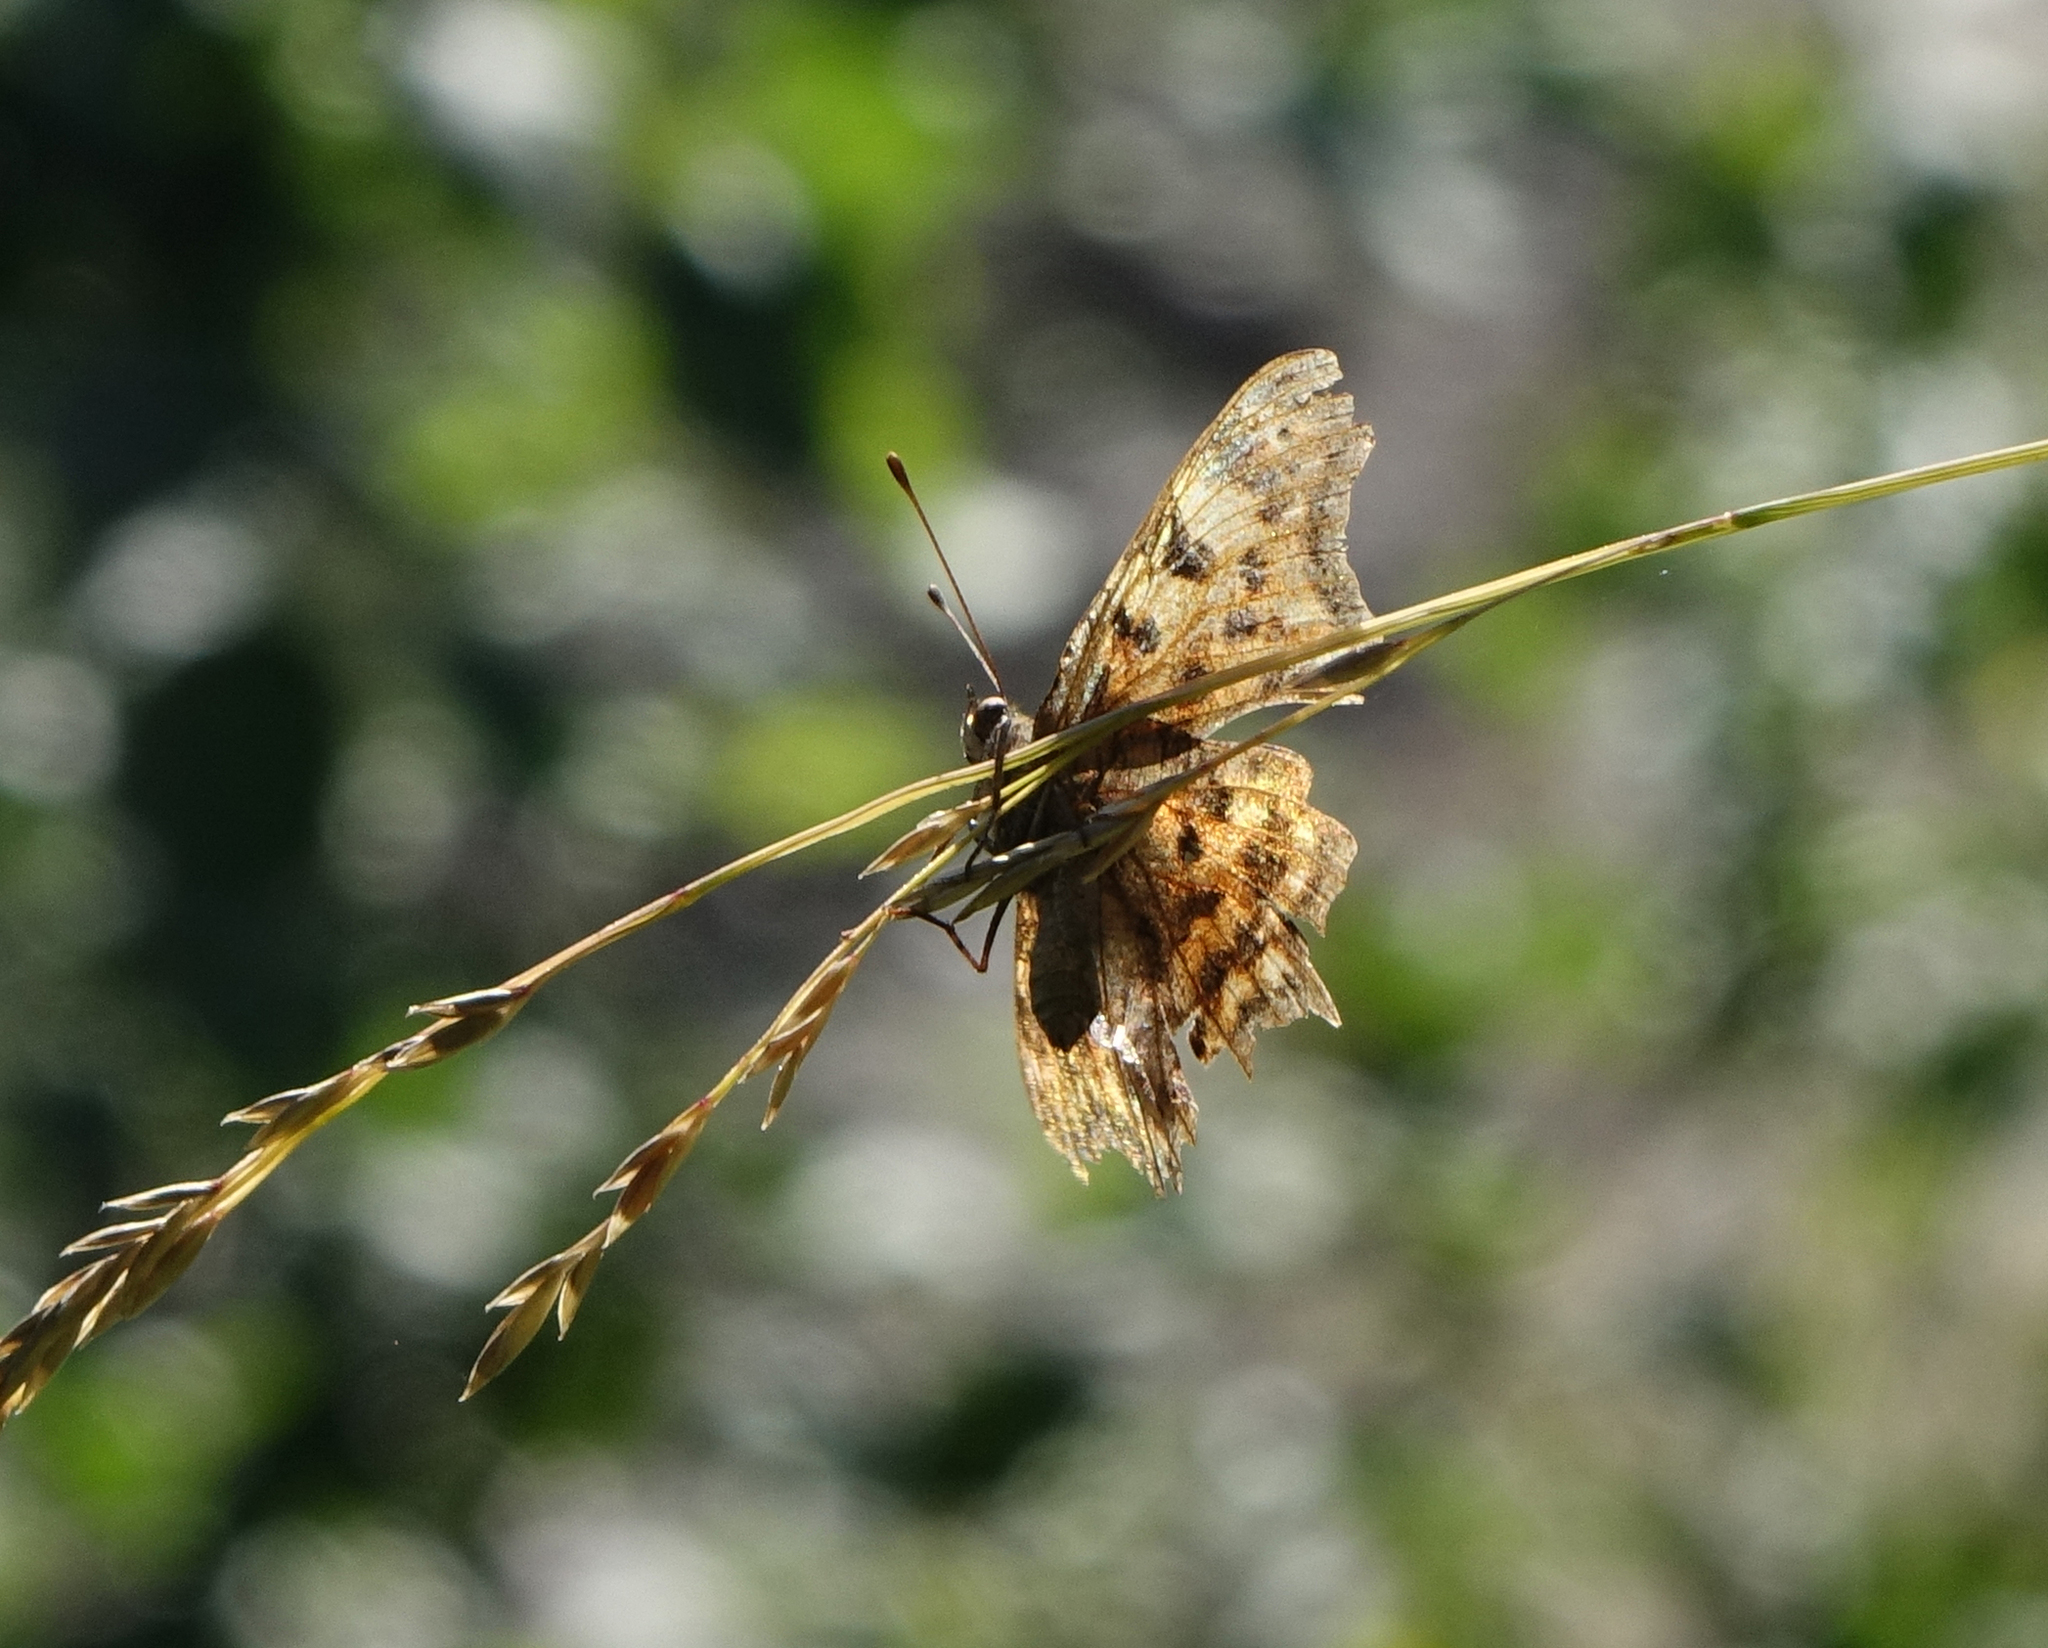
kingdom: Animalia
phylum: Arthropoda
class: Insecta
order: Lepidoptera
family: Nymphalidae
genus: Polygonia
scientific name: Polygonia c-album
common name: Comma
